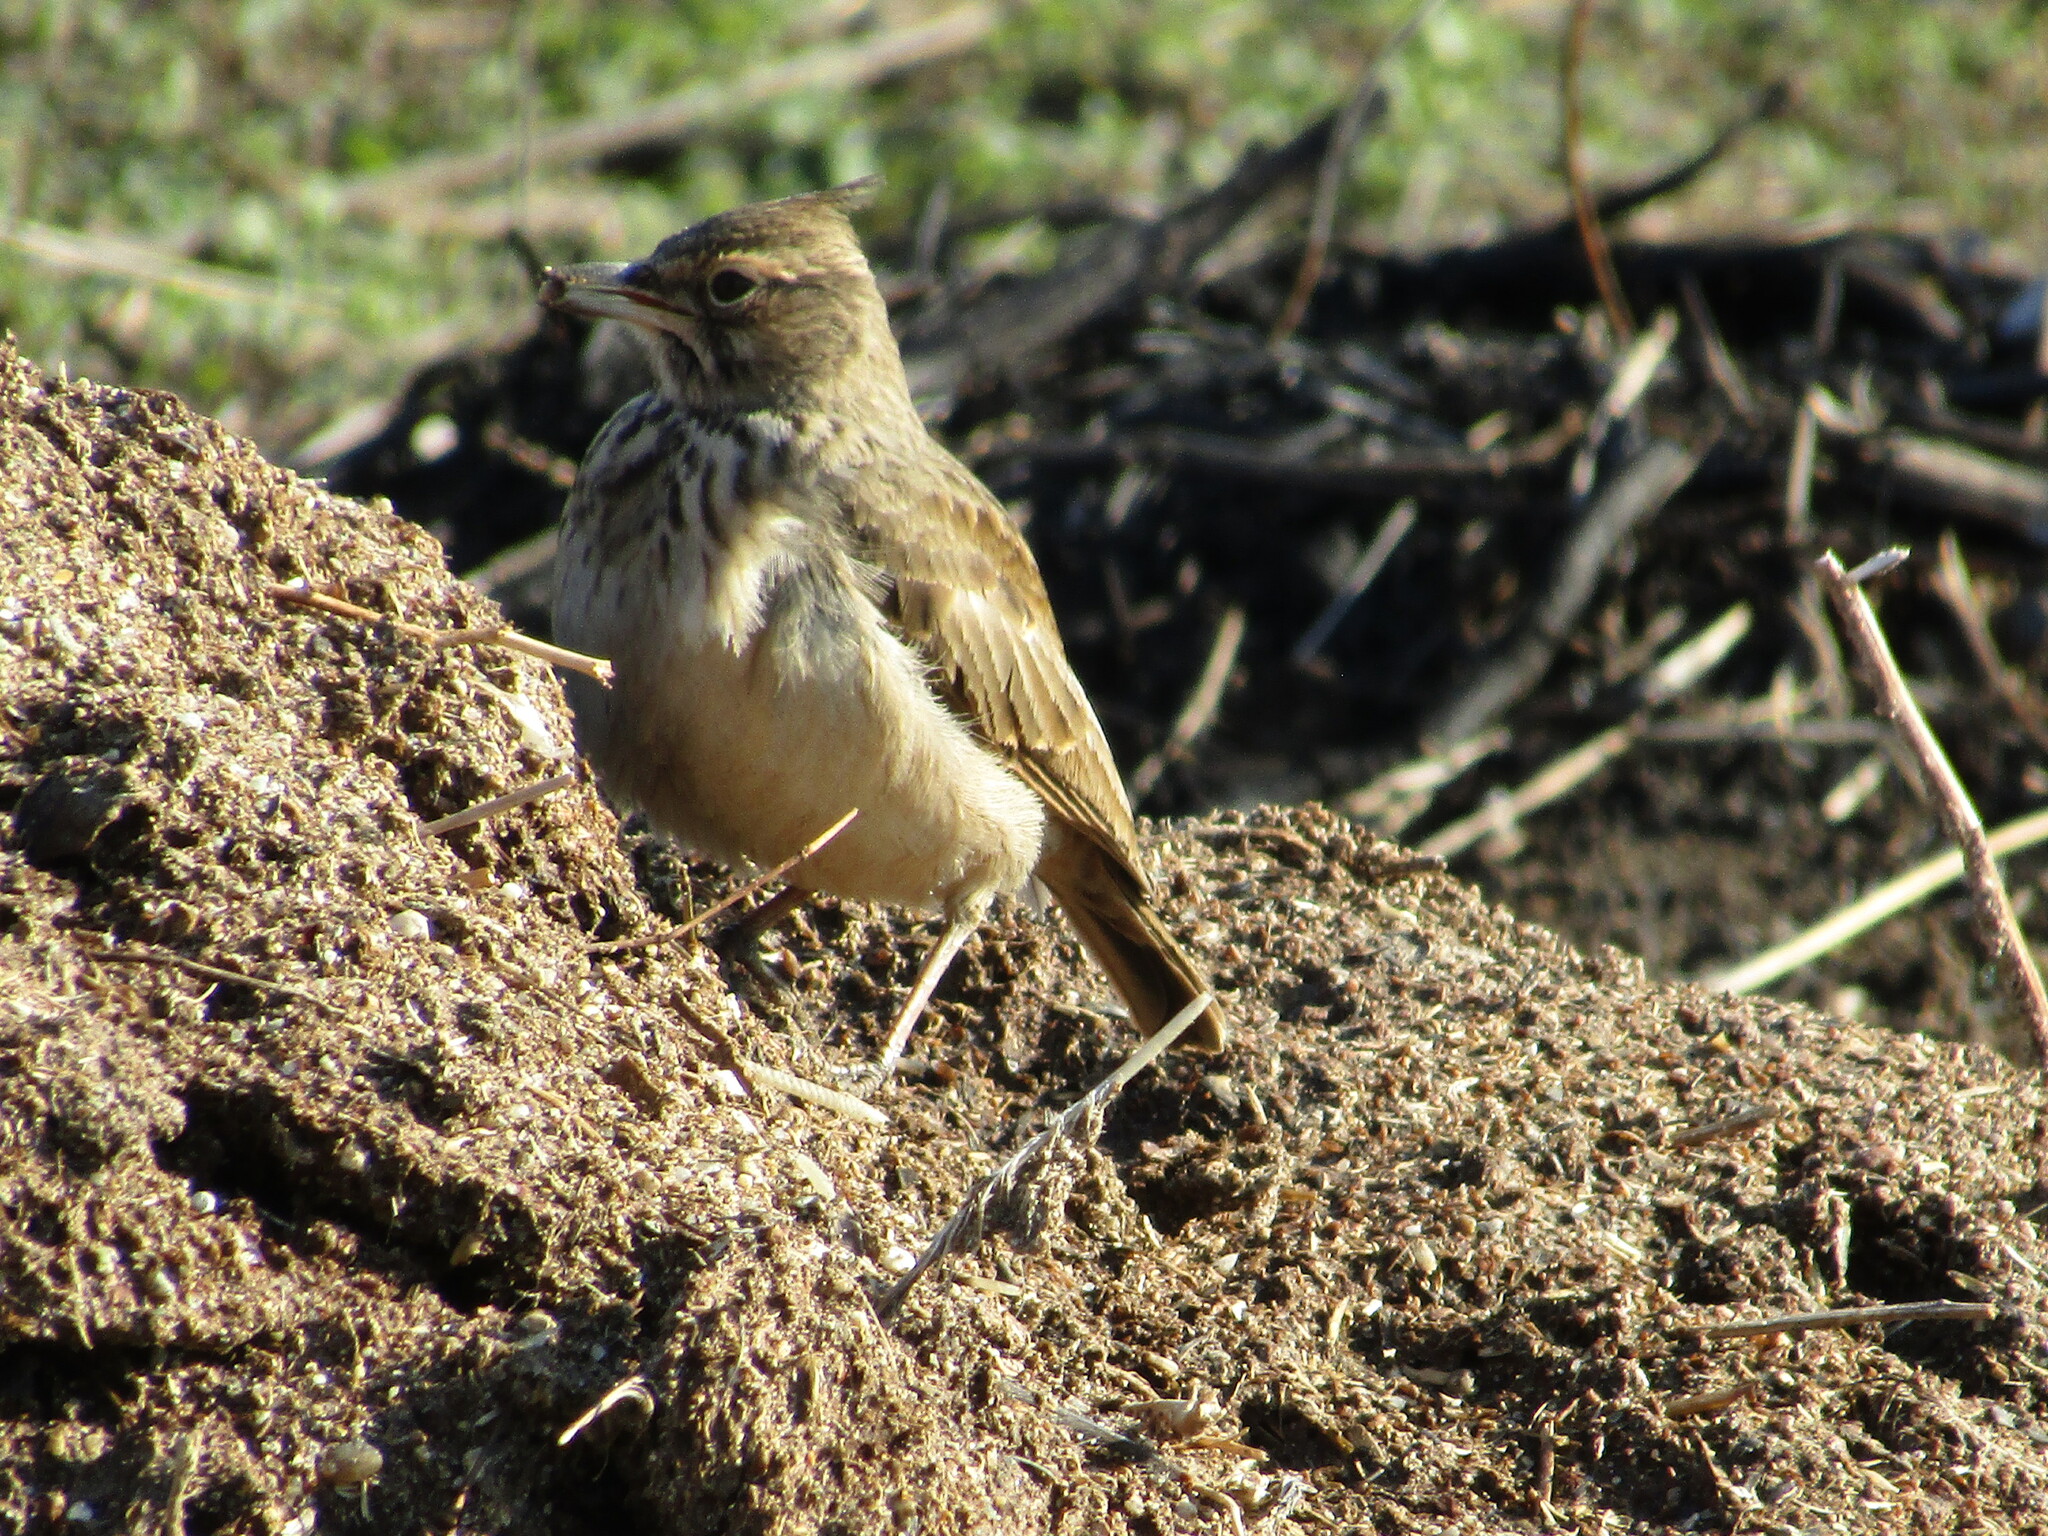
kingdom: Animalia
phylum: Chordata
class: Aves
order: Passeriformes
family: Alaudidae
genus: Galerida
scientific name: Galerida cristata
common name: Crested lark
